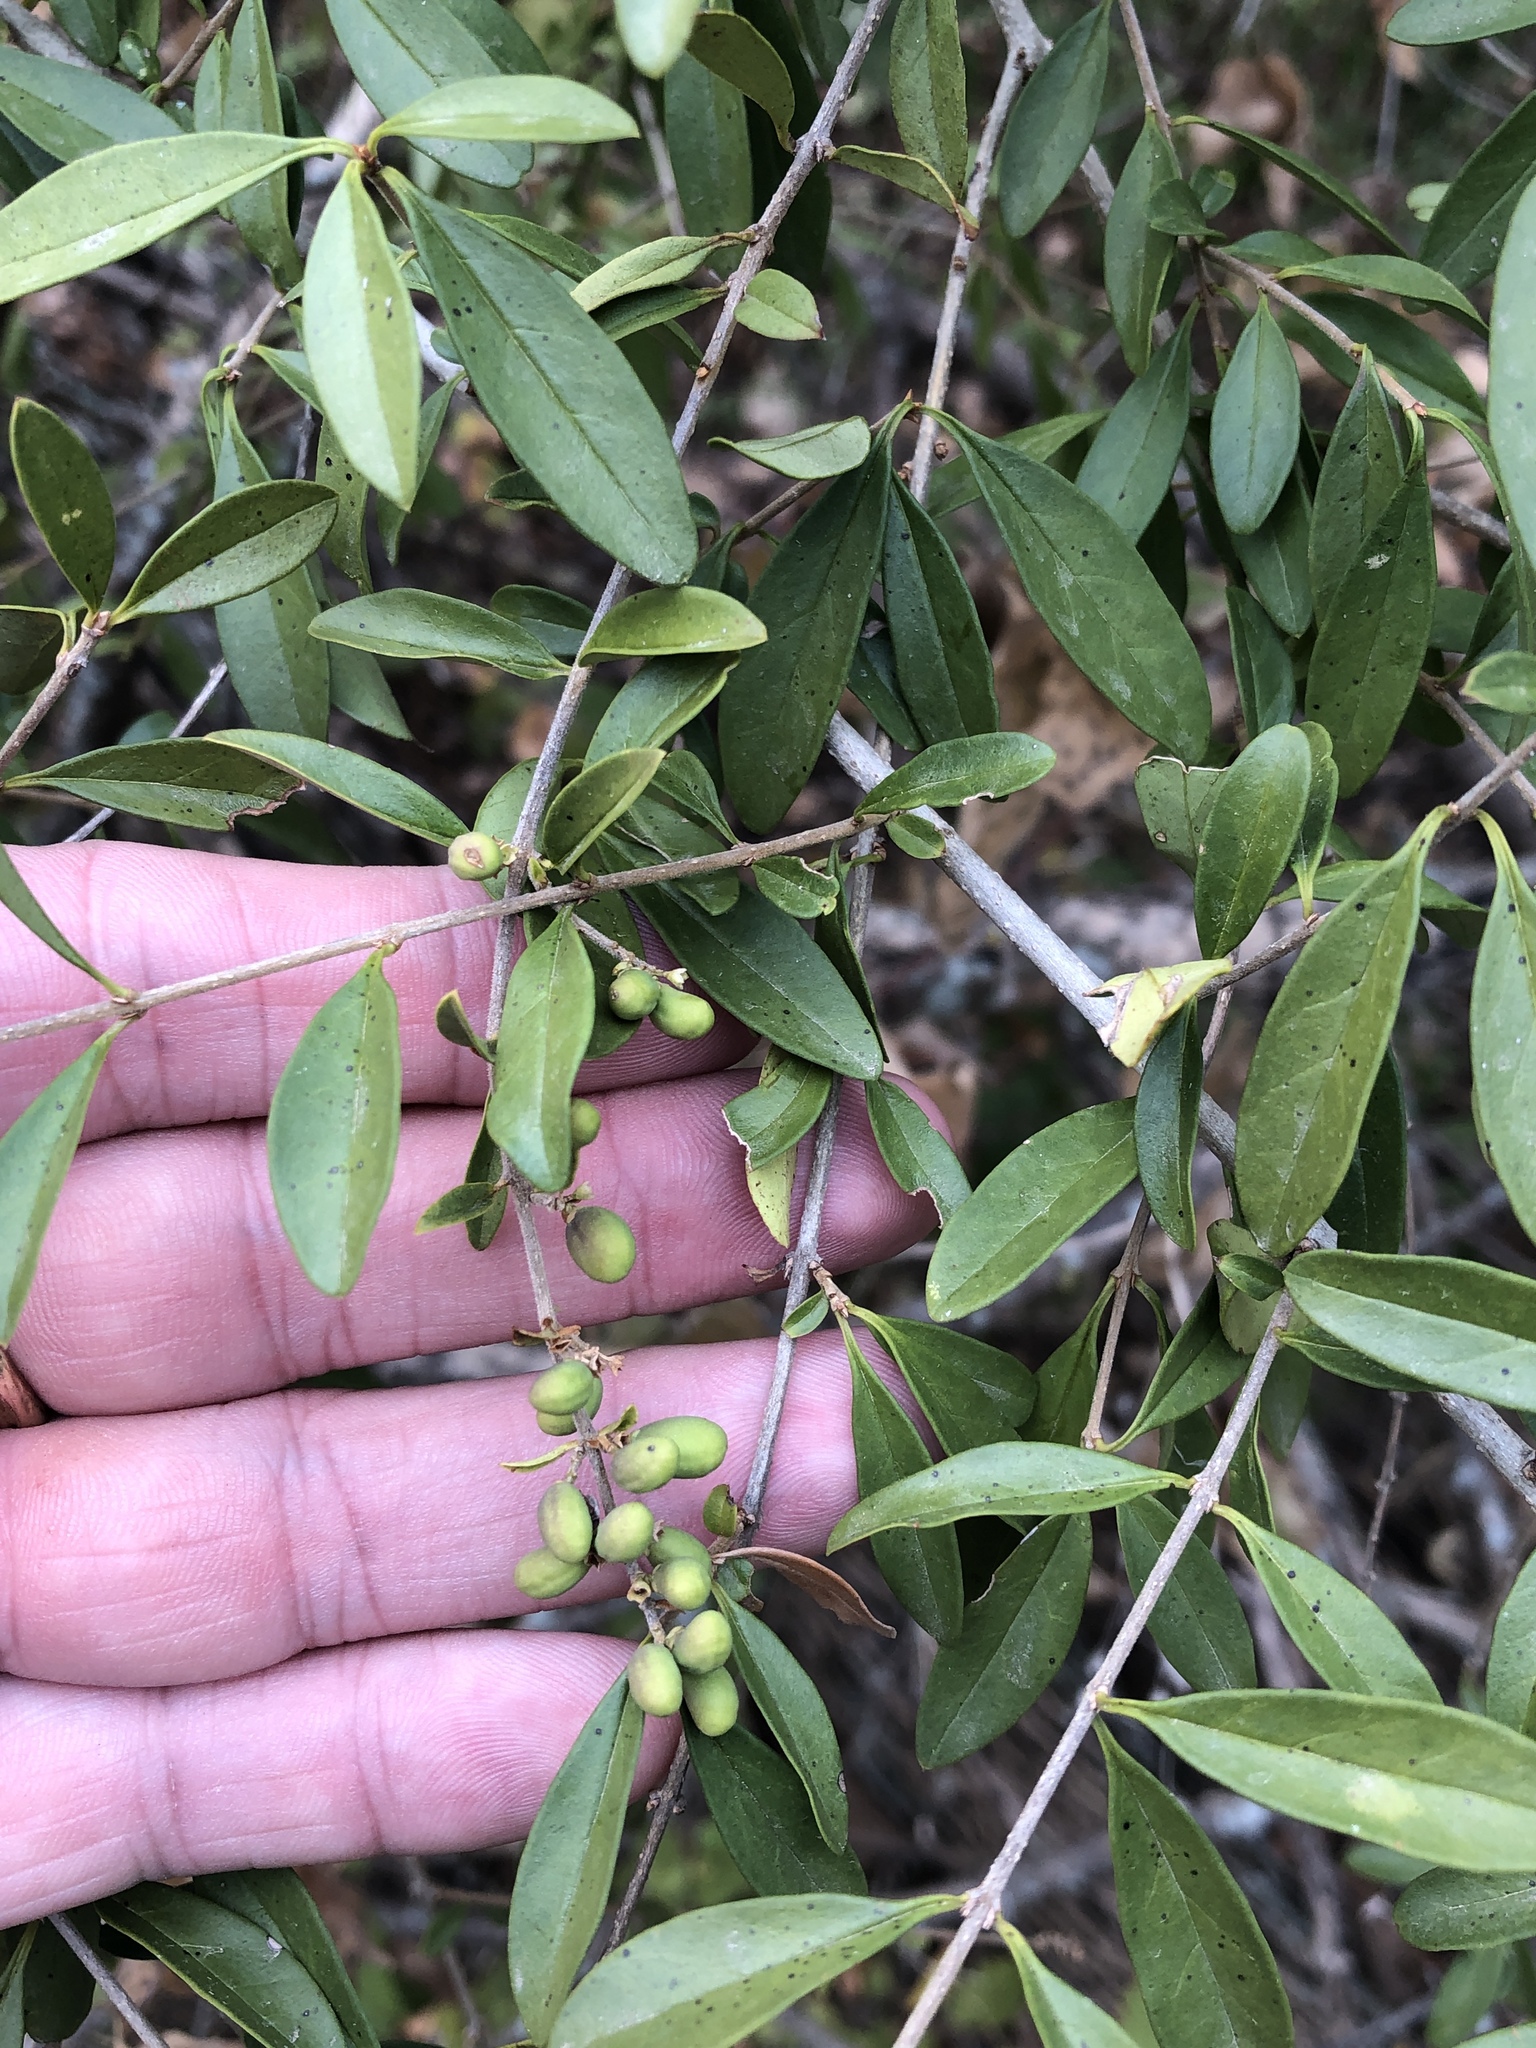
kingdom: Plantae
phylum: Tracheophyta
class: Magnoliopsida
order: Lamiales
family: Oleaceae
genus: Ligustrum
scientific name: Ligustrum quihoui
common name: Waxyleaf privet
